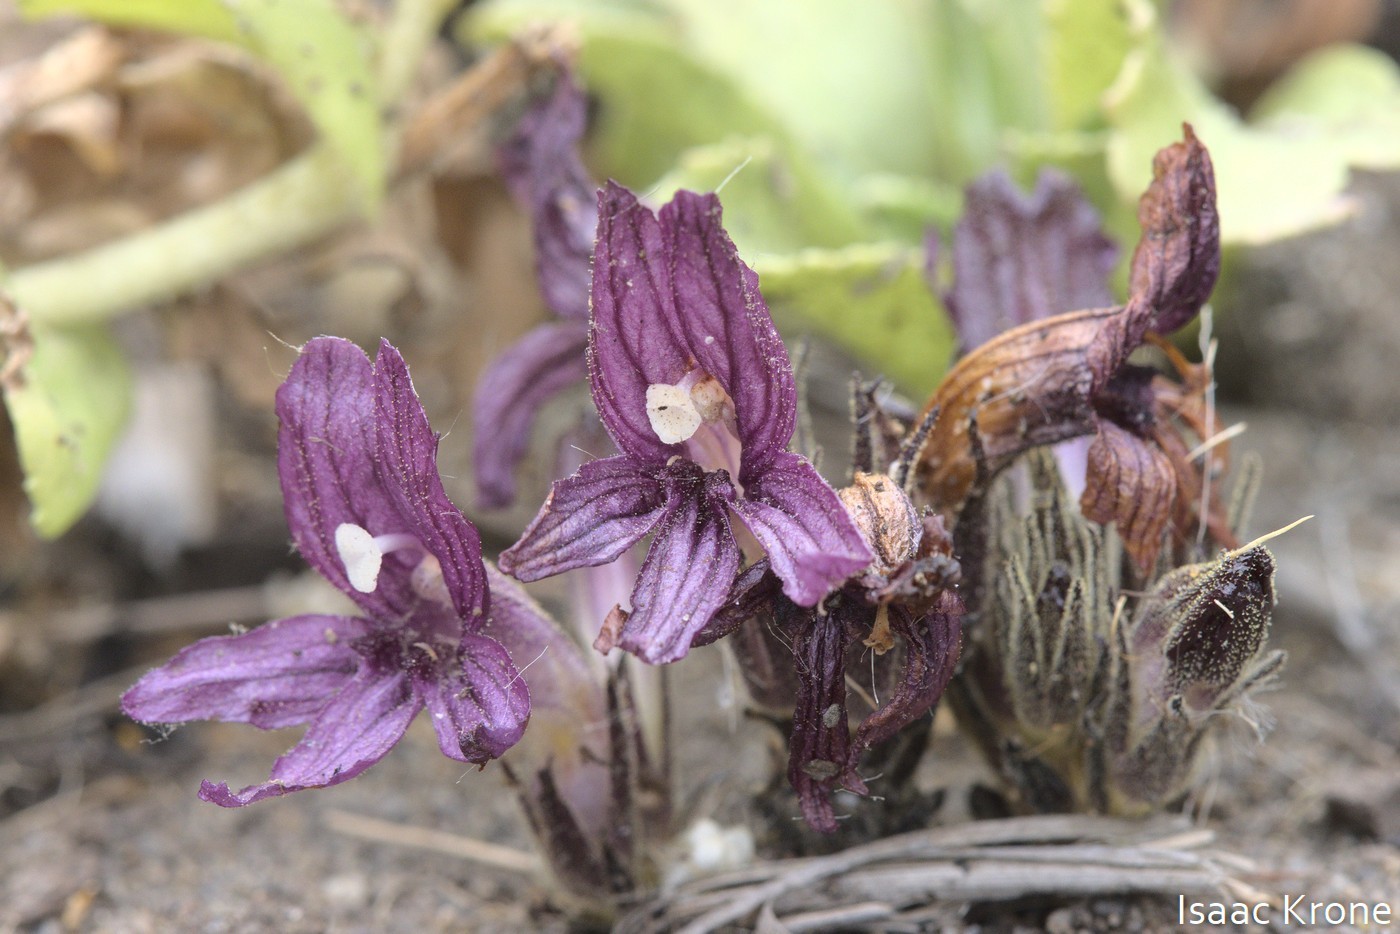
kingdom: Plantae
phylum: Tracheophyta
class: Magnoliopsida
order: Lamiales
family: Orobanchaceae
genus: Aphyllon
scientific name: Aphyllon californicum
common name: California broomrape
